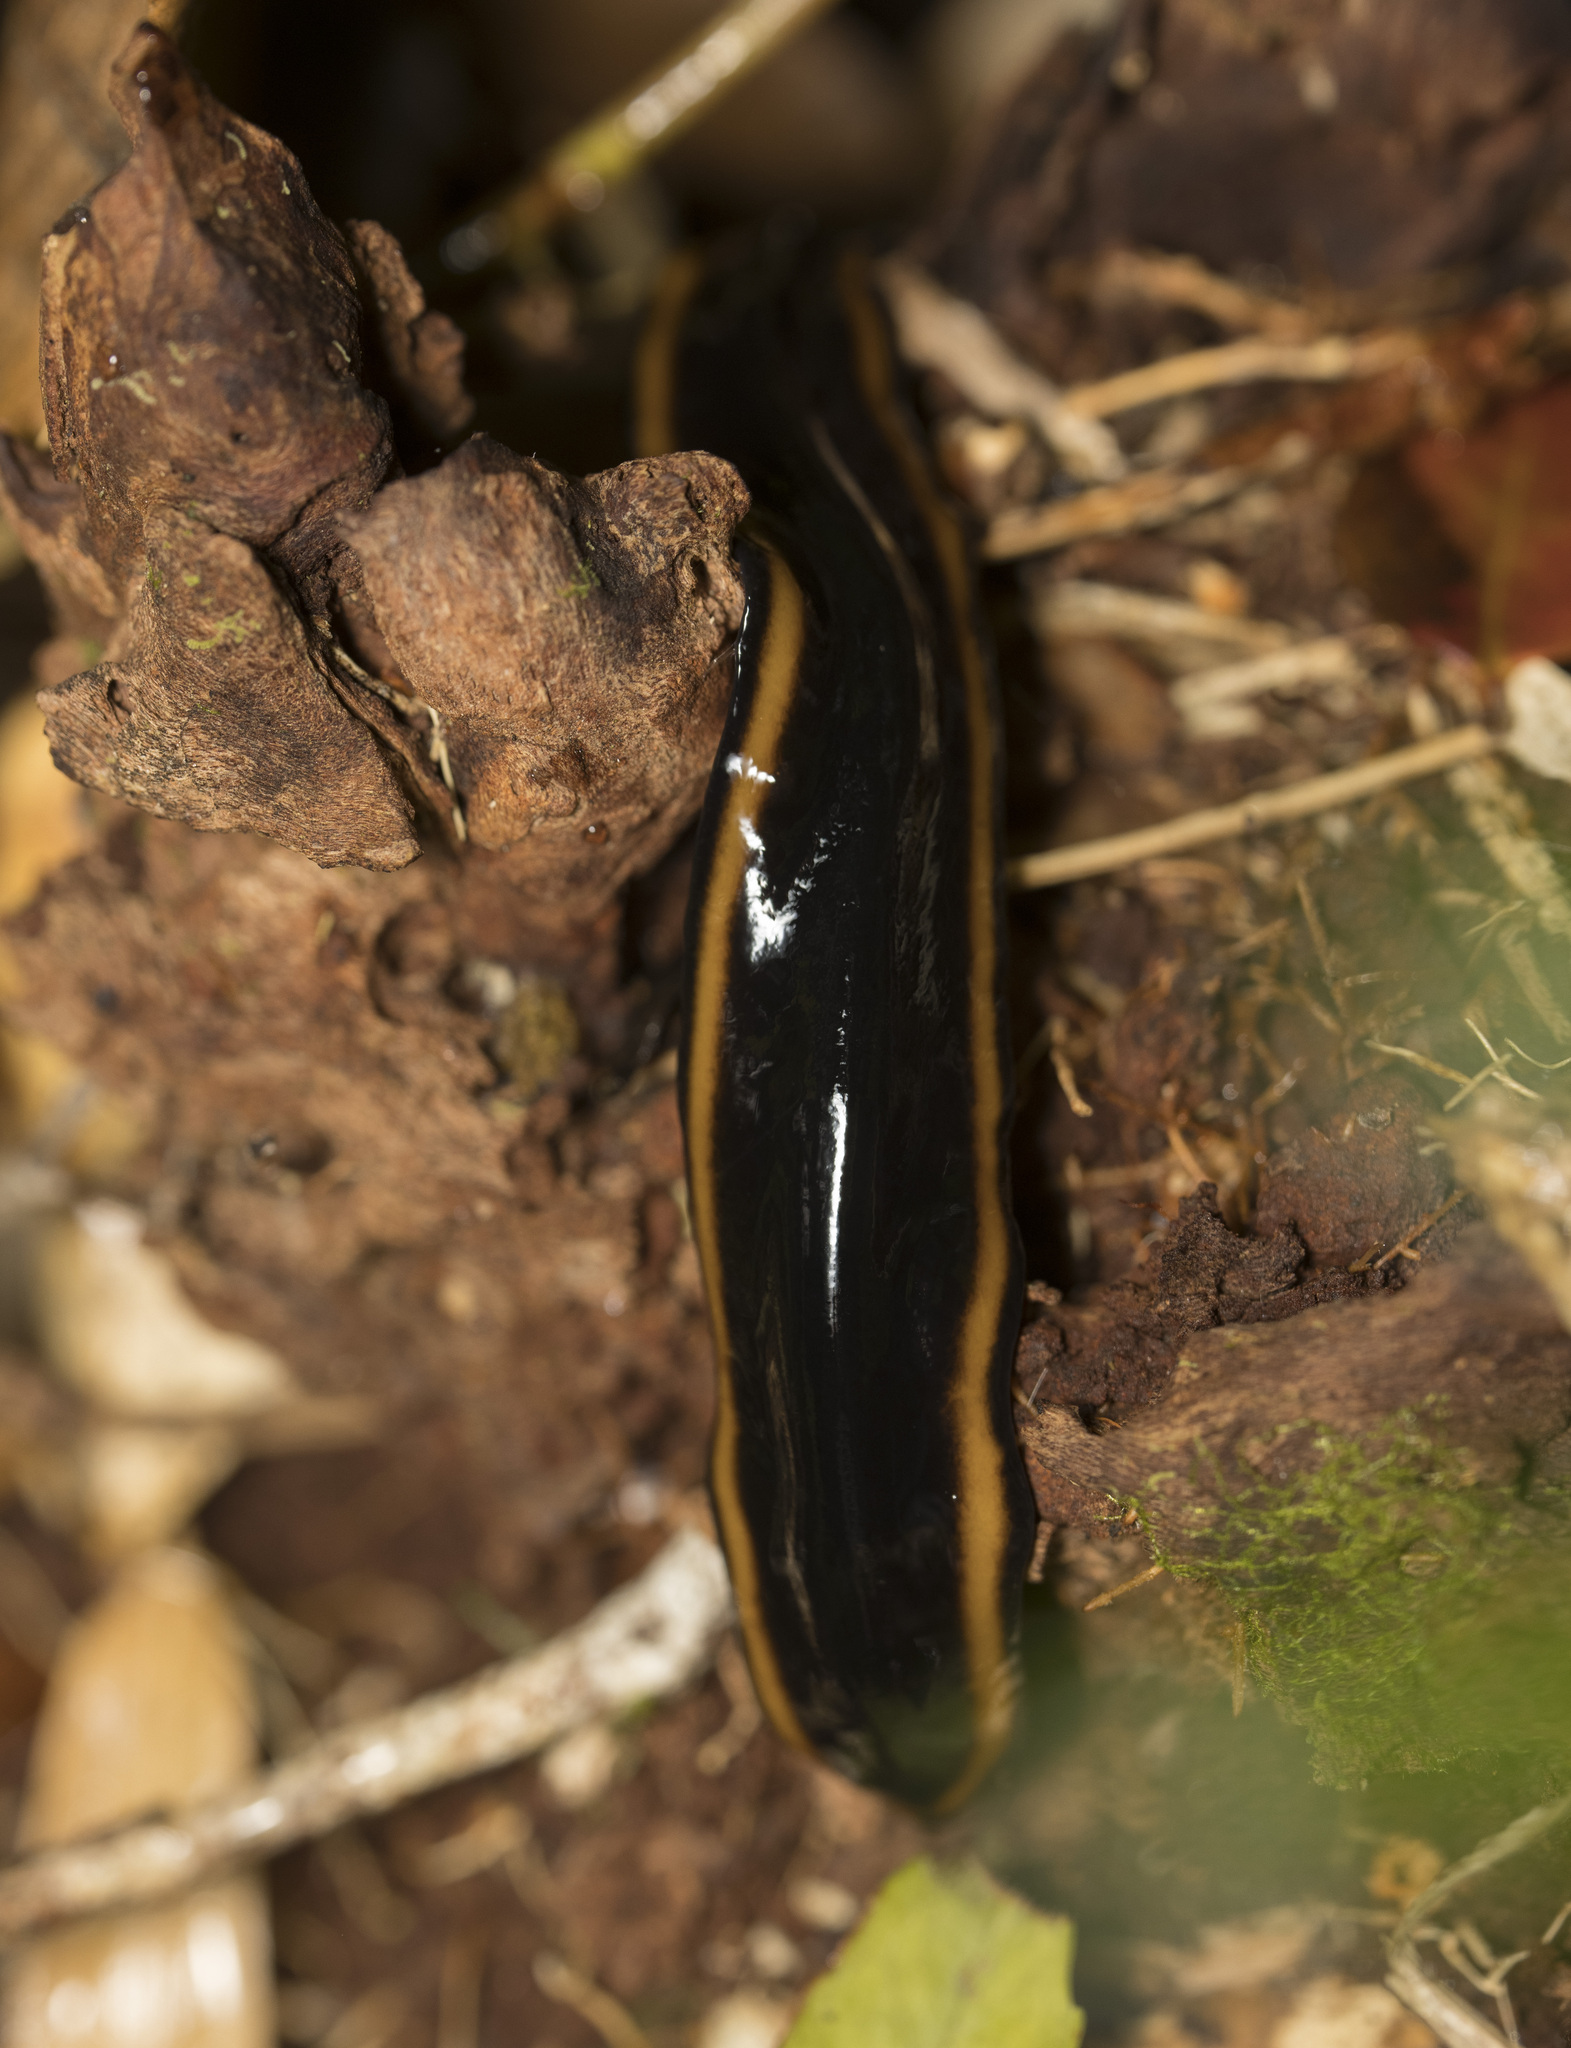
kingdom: Animalia
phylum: Platyhelminthes
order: Tricladida
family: Geoplanidae
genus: Polycladus
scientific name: Polycladus gayi
